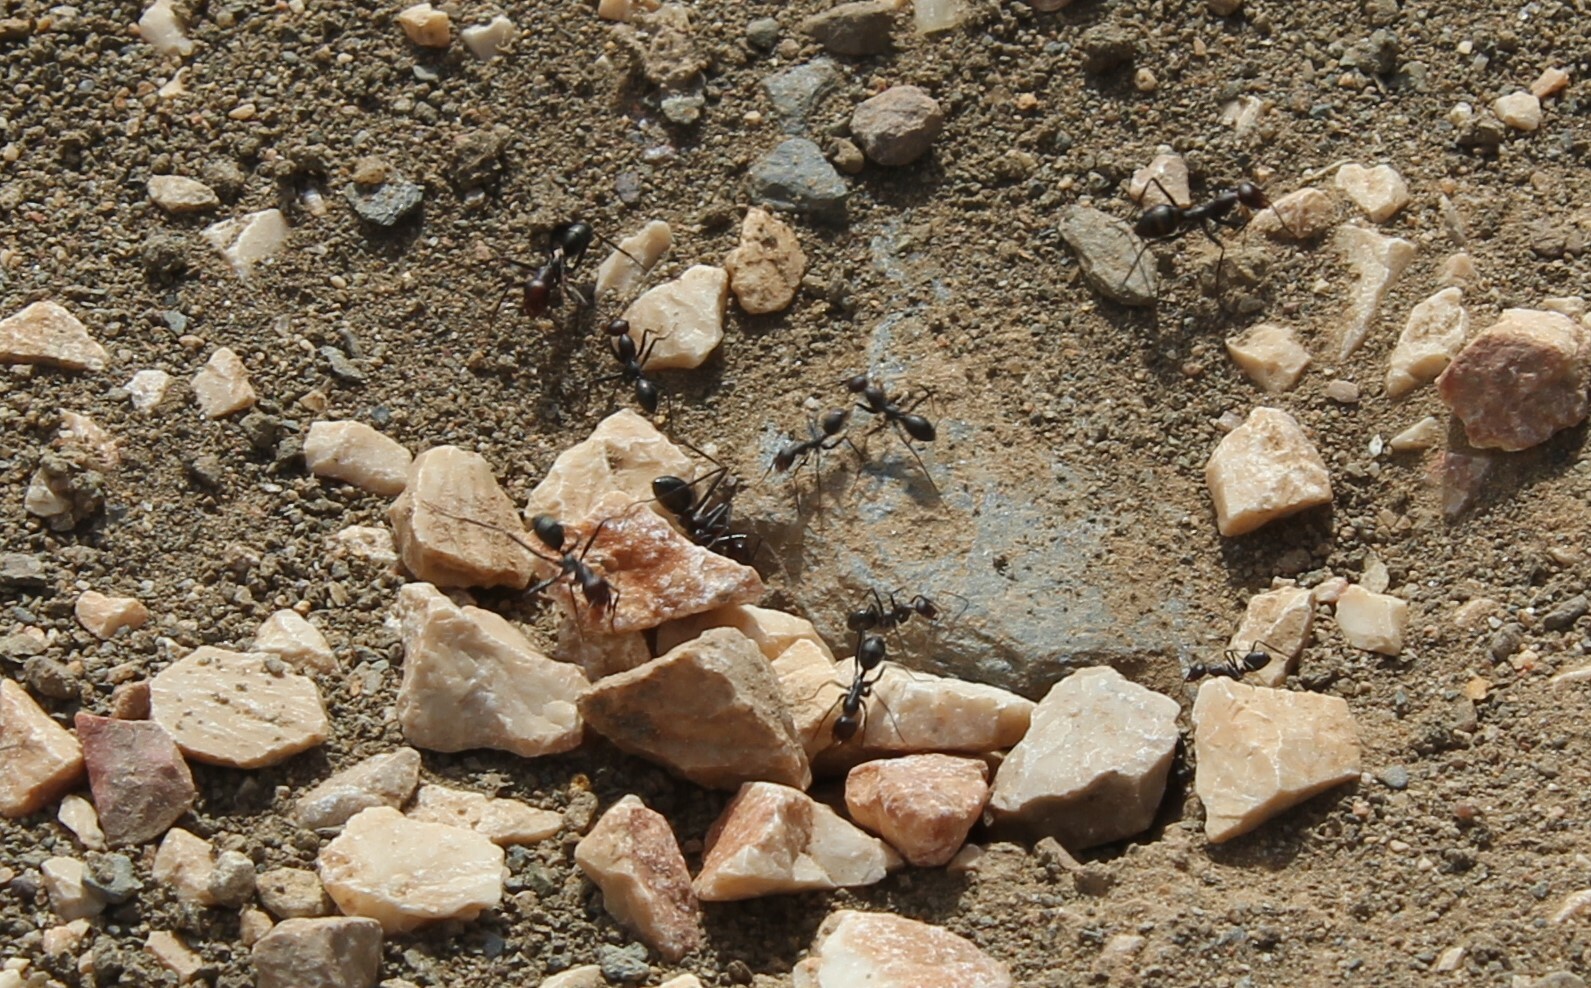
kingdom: Animalia
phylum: Arthropoda
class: Insecta
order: Hymenoptera
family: Formicidae
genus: Cataglyphis
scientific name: Cataglyphis velox
